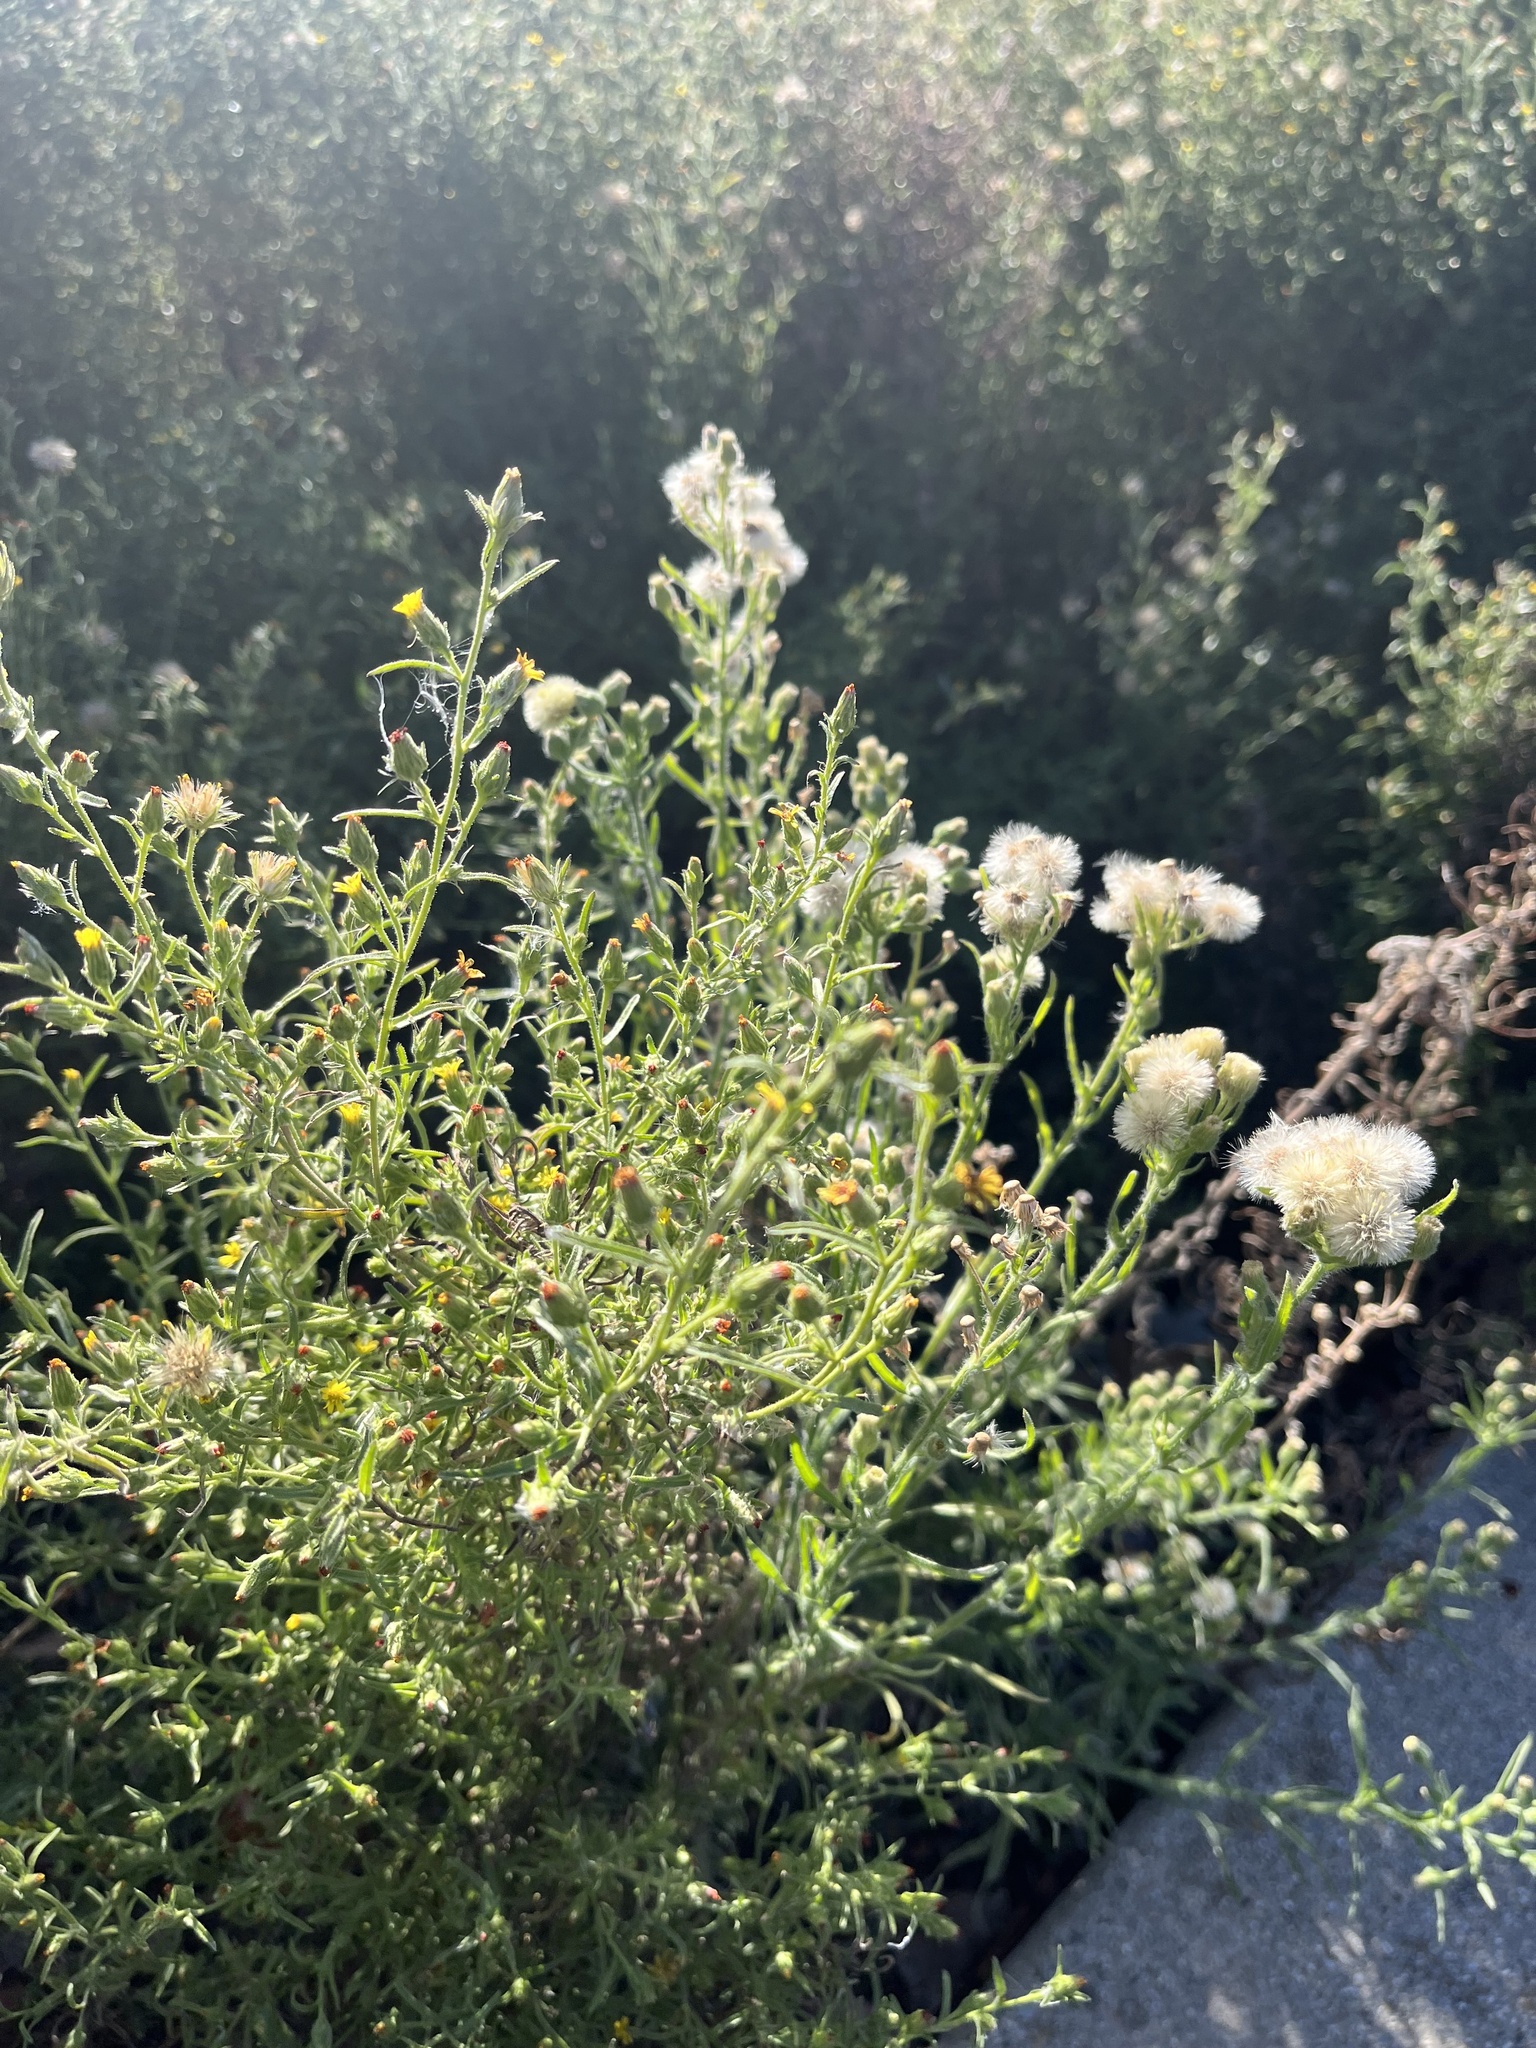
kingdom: Plantae
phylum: Tracheophyta
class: Magnoliopsida
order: Asterales
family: Asteraceae
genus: Dittrichia
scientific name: Dittrichia graveolens
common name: Stinking fleabane
